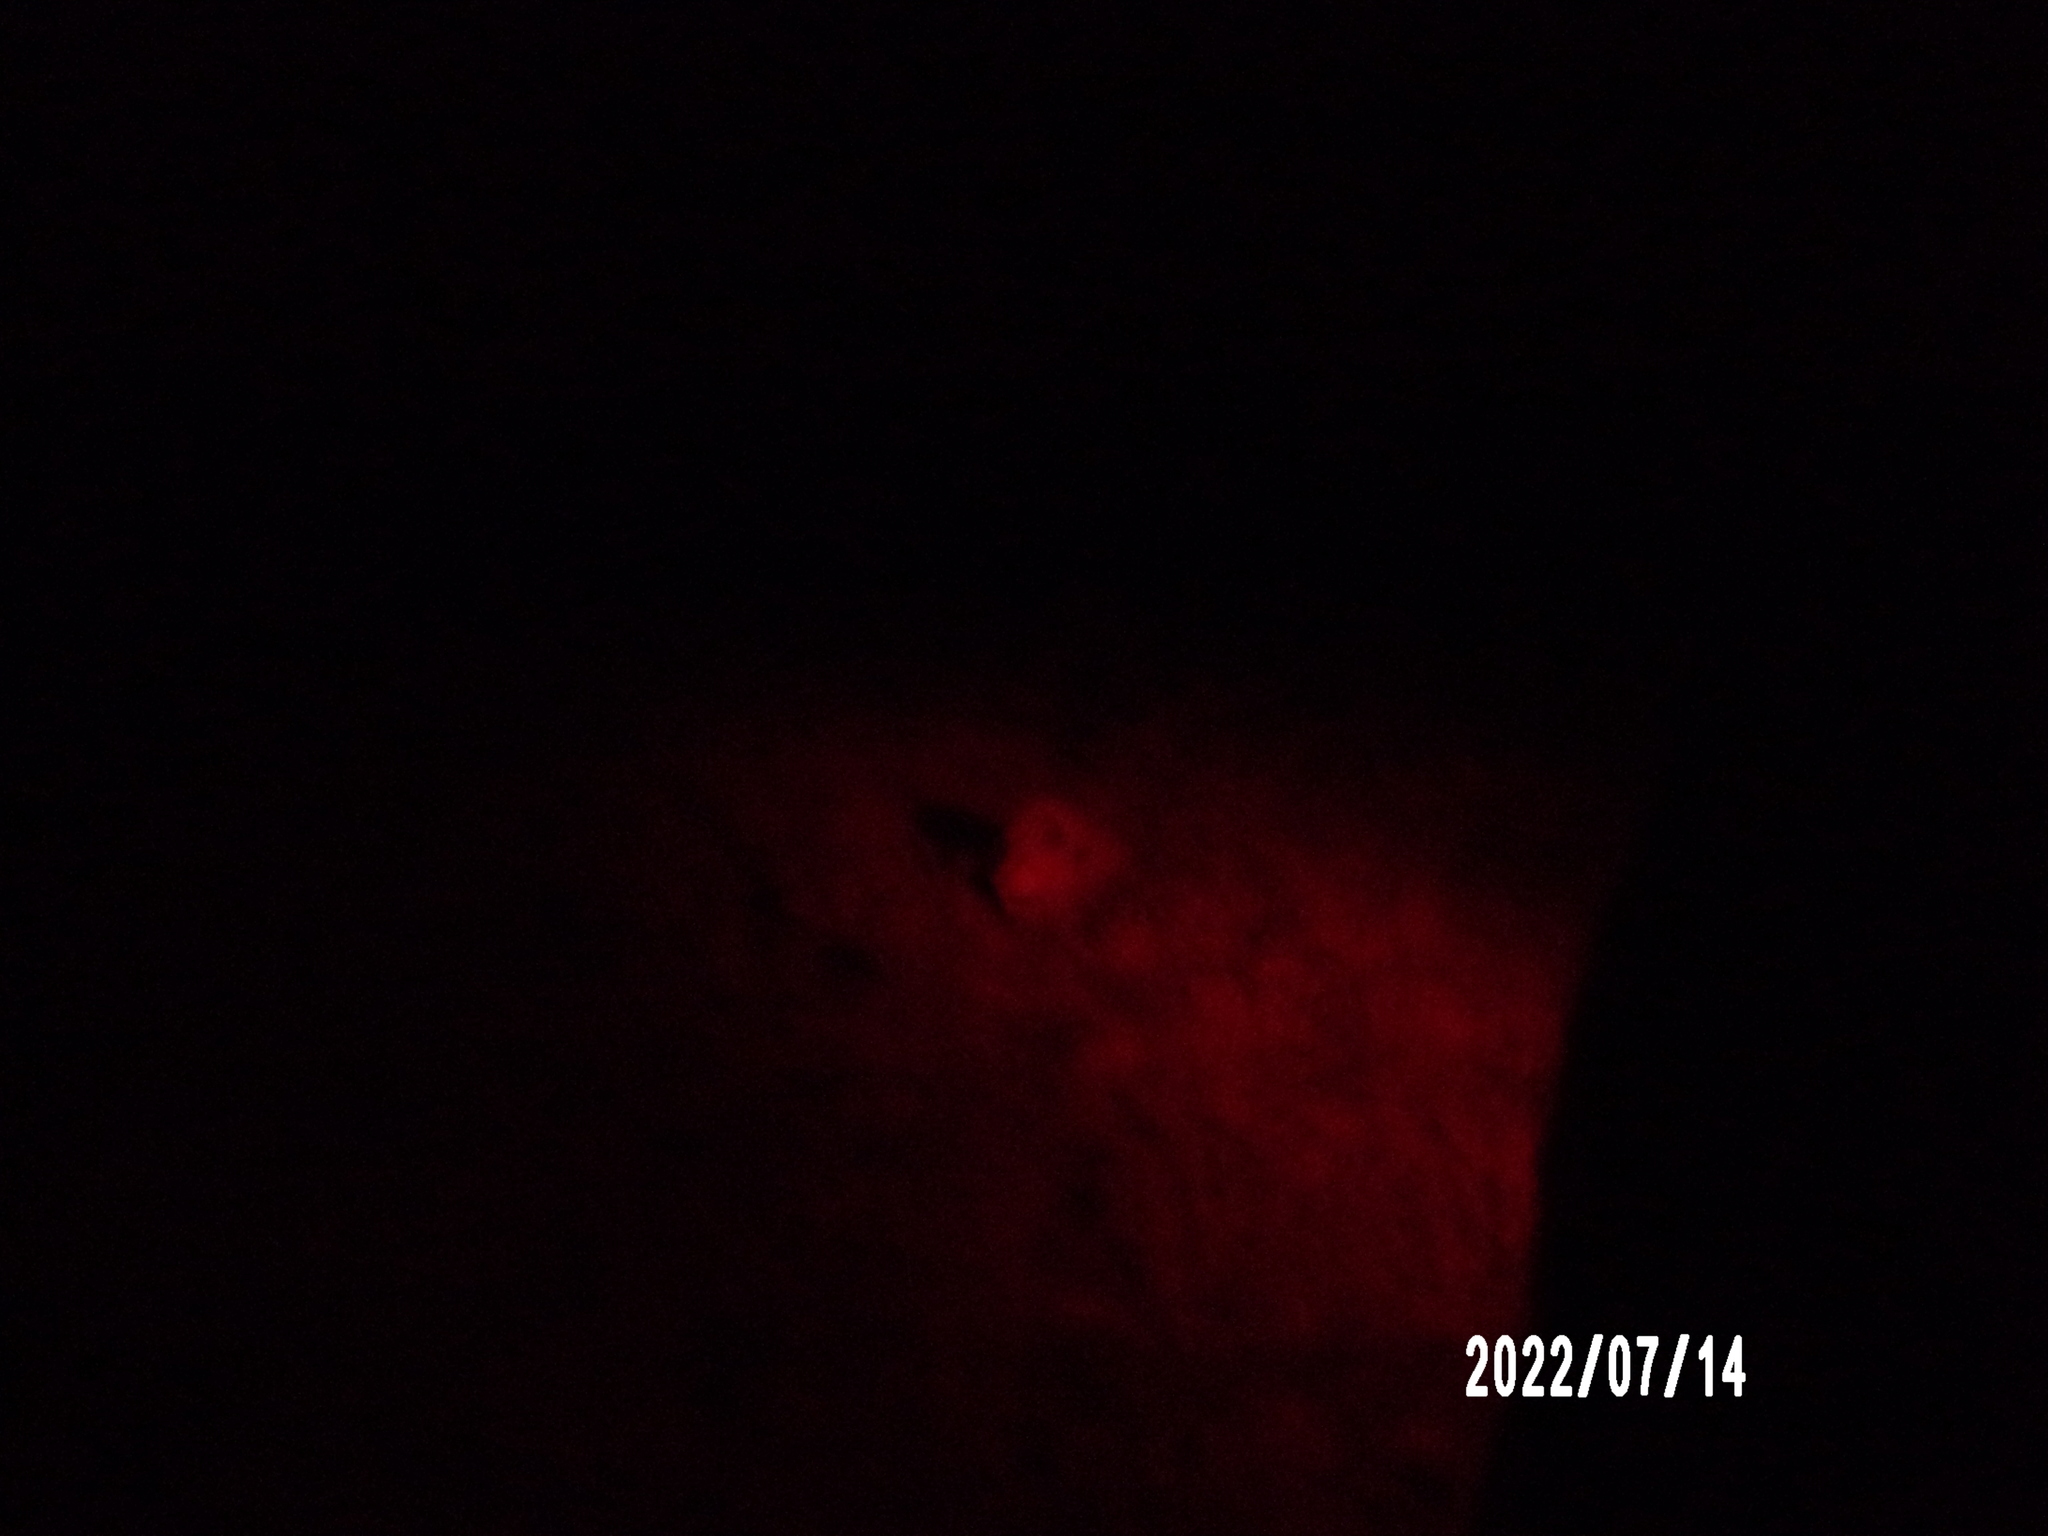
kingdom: Animalia
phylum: Chordata
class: Mammalia
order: Carnivora
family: Felidae
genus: Panthera
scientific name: Panthera leo
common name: Lion
